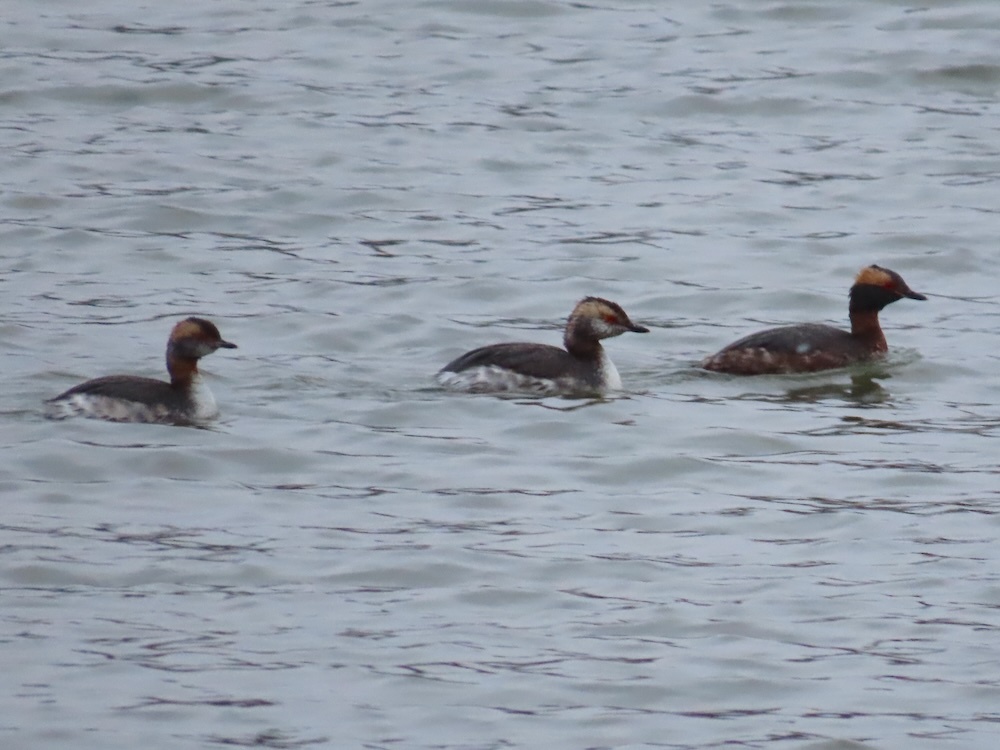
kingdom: Animalia
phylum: Chordata
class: Aves
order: Podicipediformes
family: Podicipedidae
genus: Podiceps
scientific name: Podiceps auritus
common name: Horned grebe
